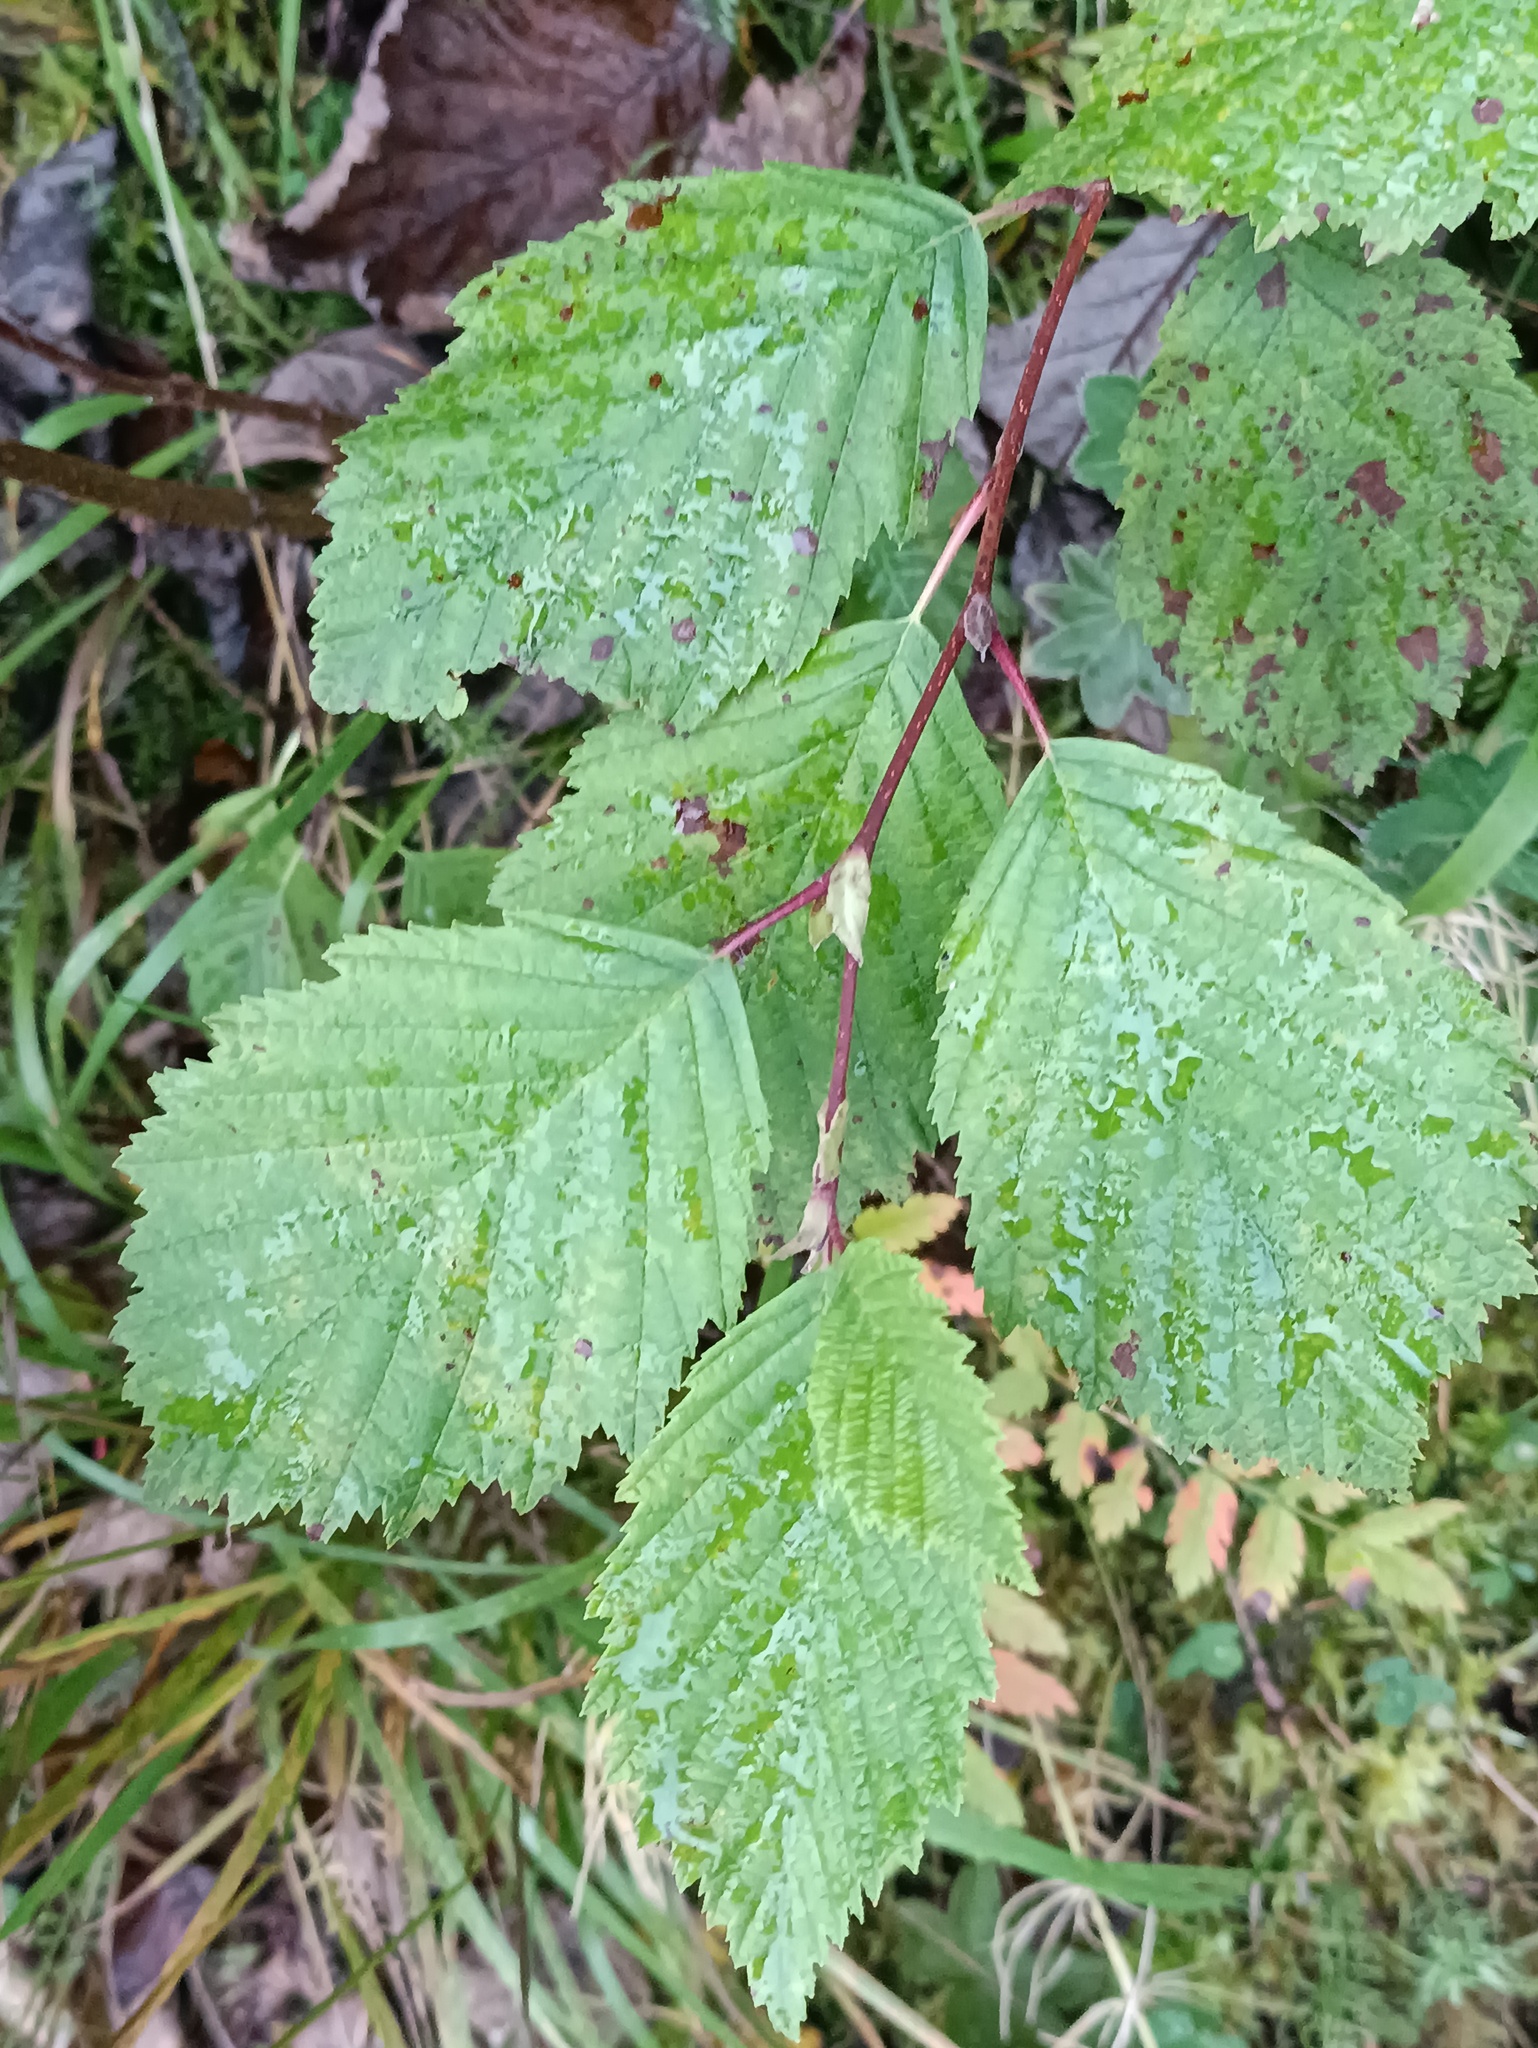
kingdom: Plantae
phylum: Tracheophyta
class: Magnoliopsida
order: Fagales
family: Betulaceae
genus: Alnus
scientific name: Alnus incana
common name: Grey alder
